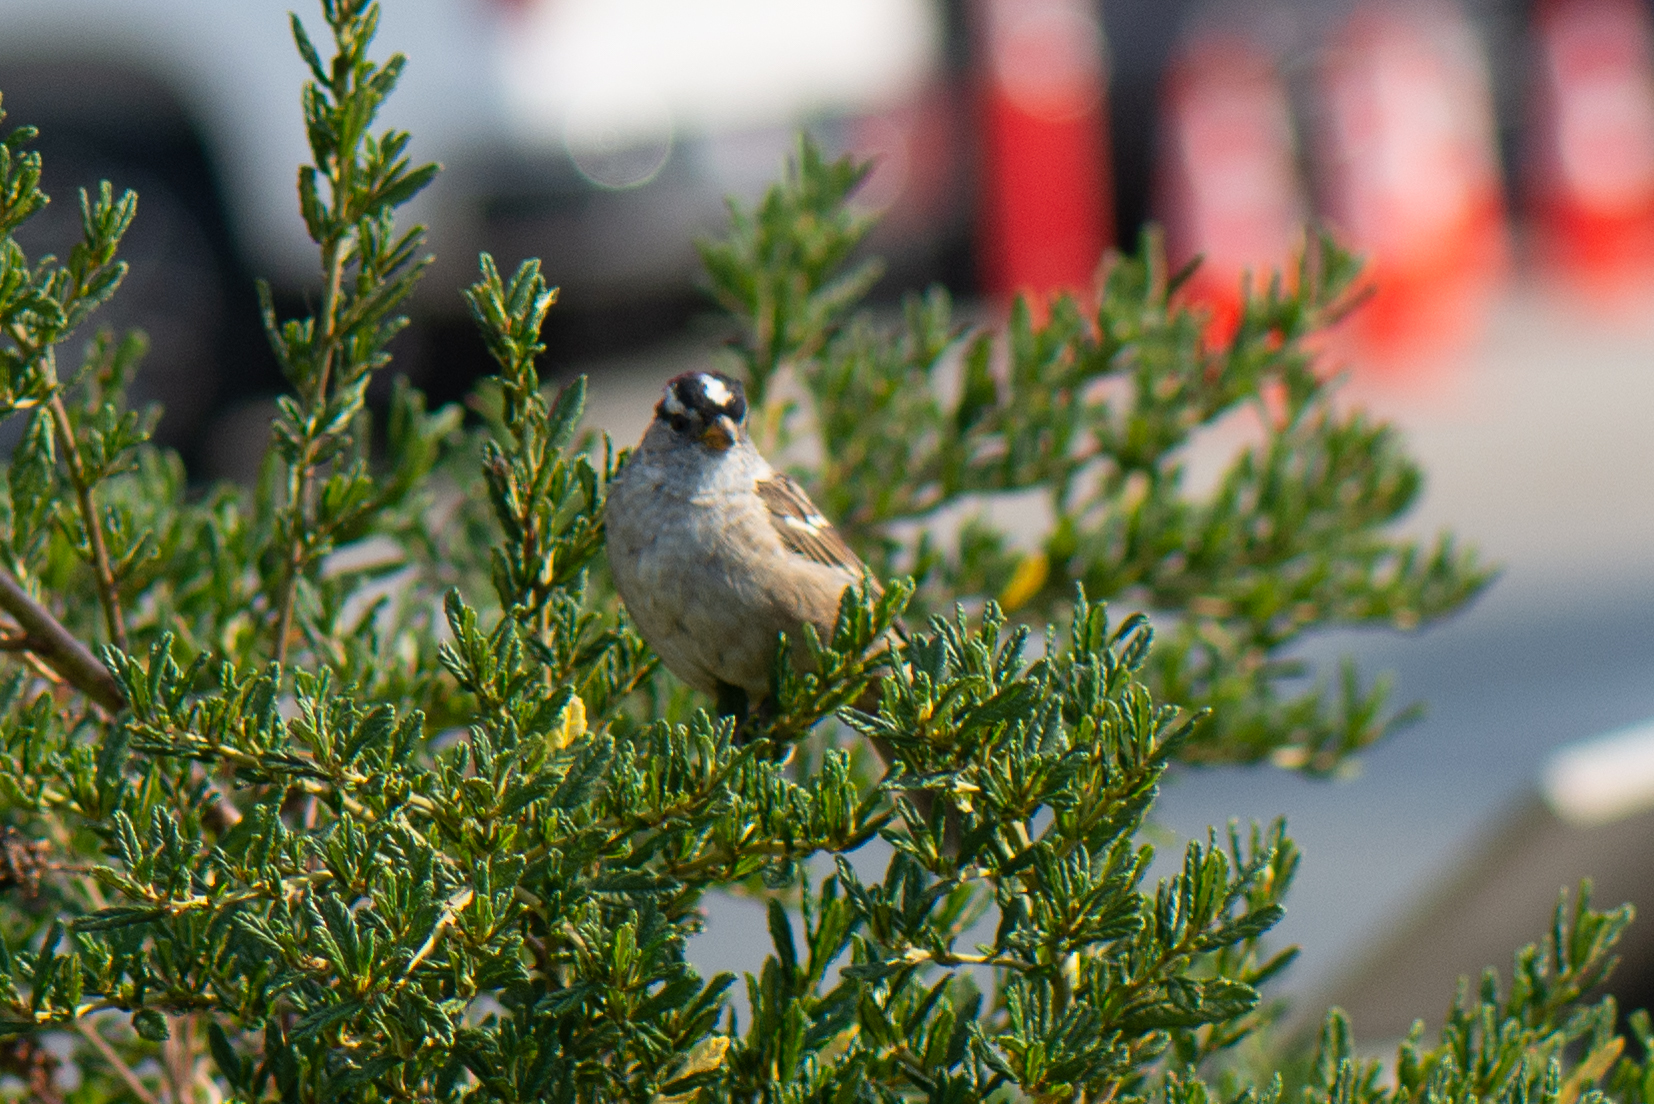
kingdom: Animalia
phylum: Chordata
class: Aves
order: Passeriformes
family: Passerellidae
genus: Zonotrichia
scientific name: Zonotrichia leucophrys
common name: White-crowned sparrow
